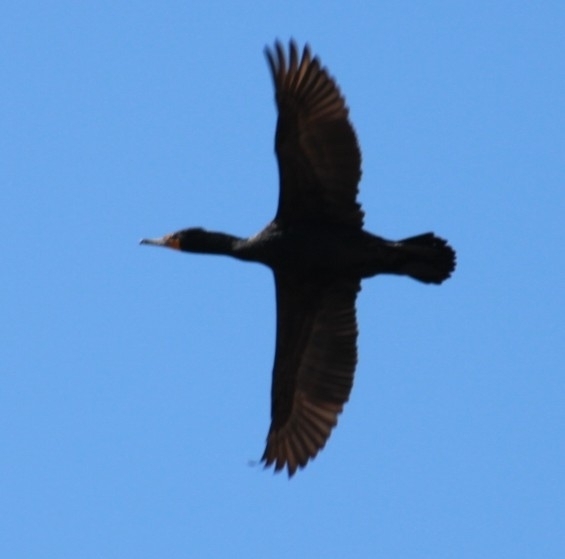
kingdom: Animalia
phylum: Chordata
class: Aves
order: Suliformes
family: Phalacrocoracidae
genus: Phalacrocorax
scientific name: Phalacrocorax auritus
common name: Double-crested cormorant
